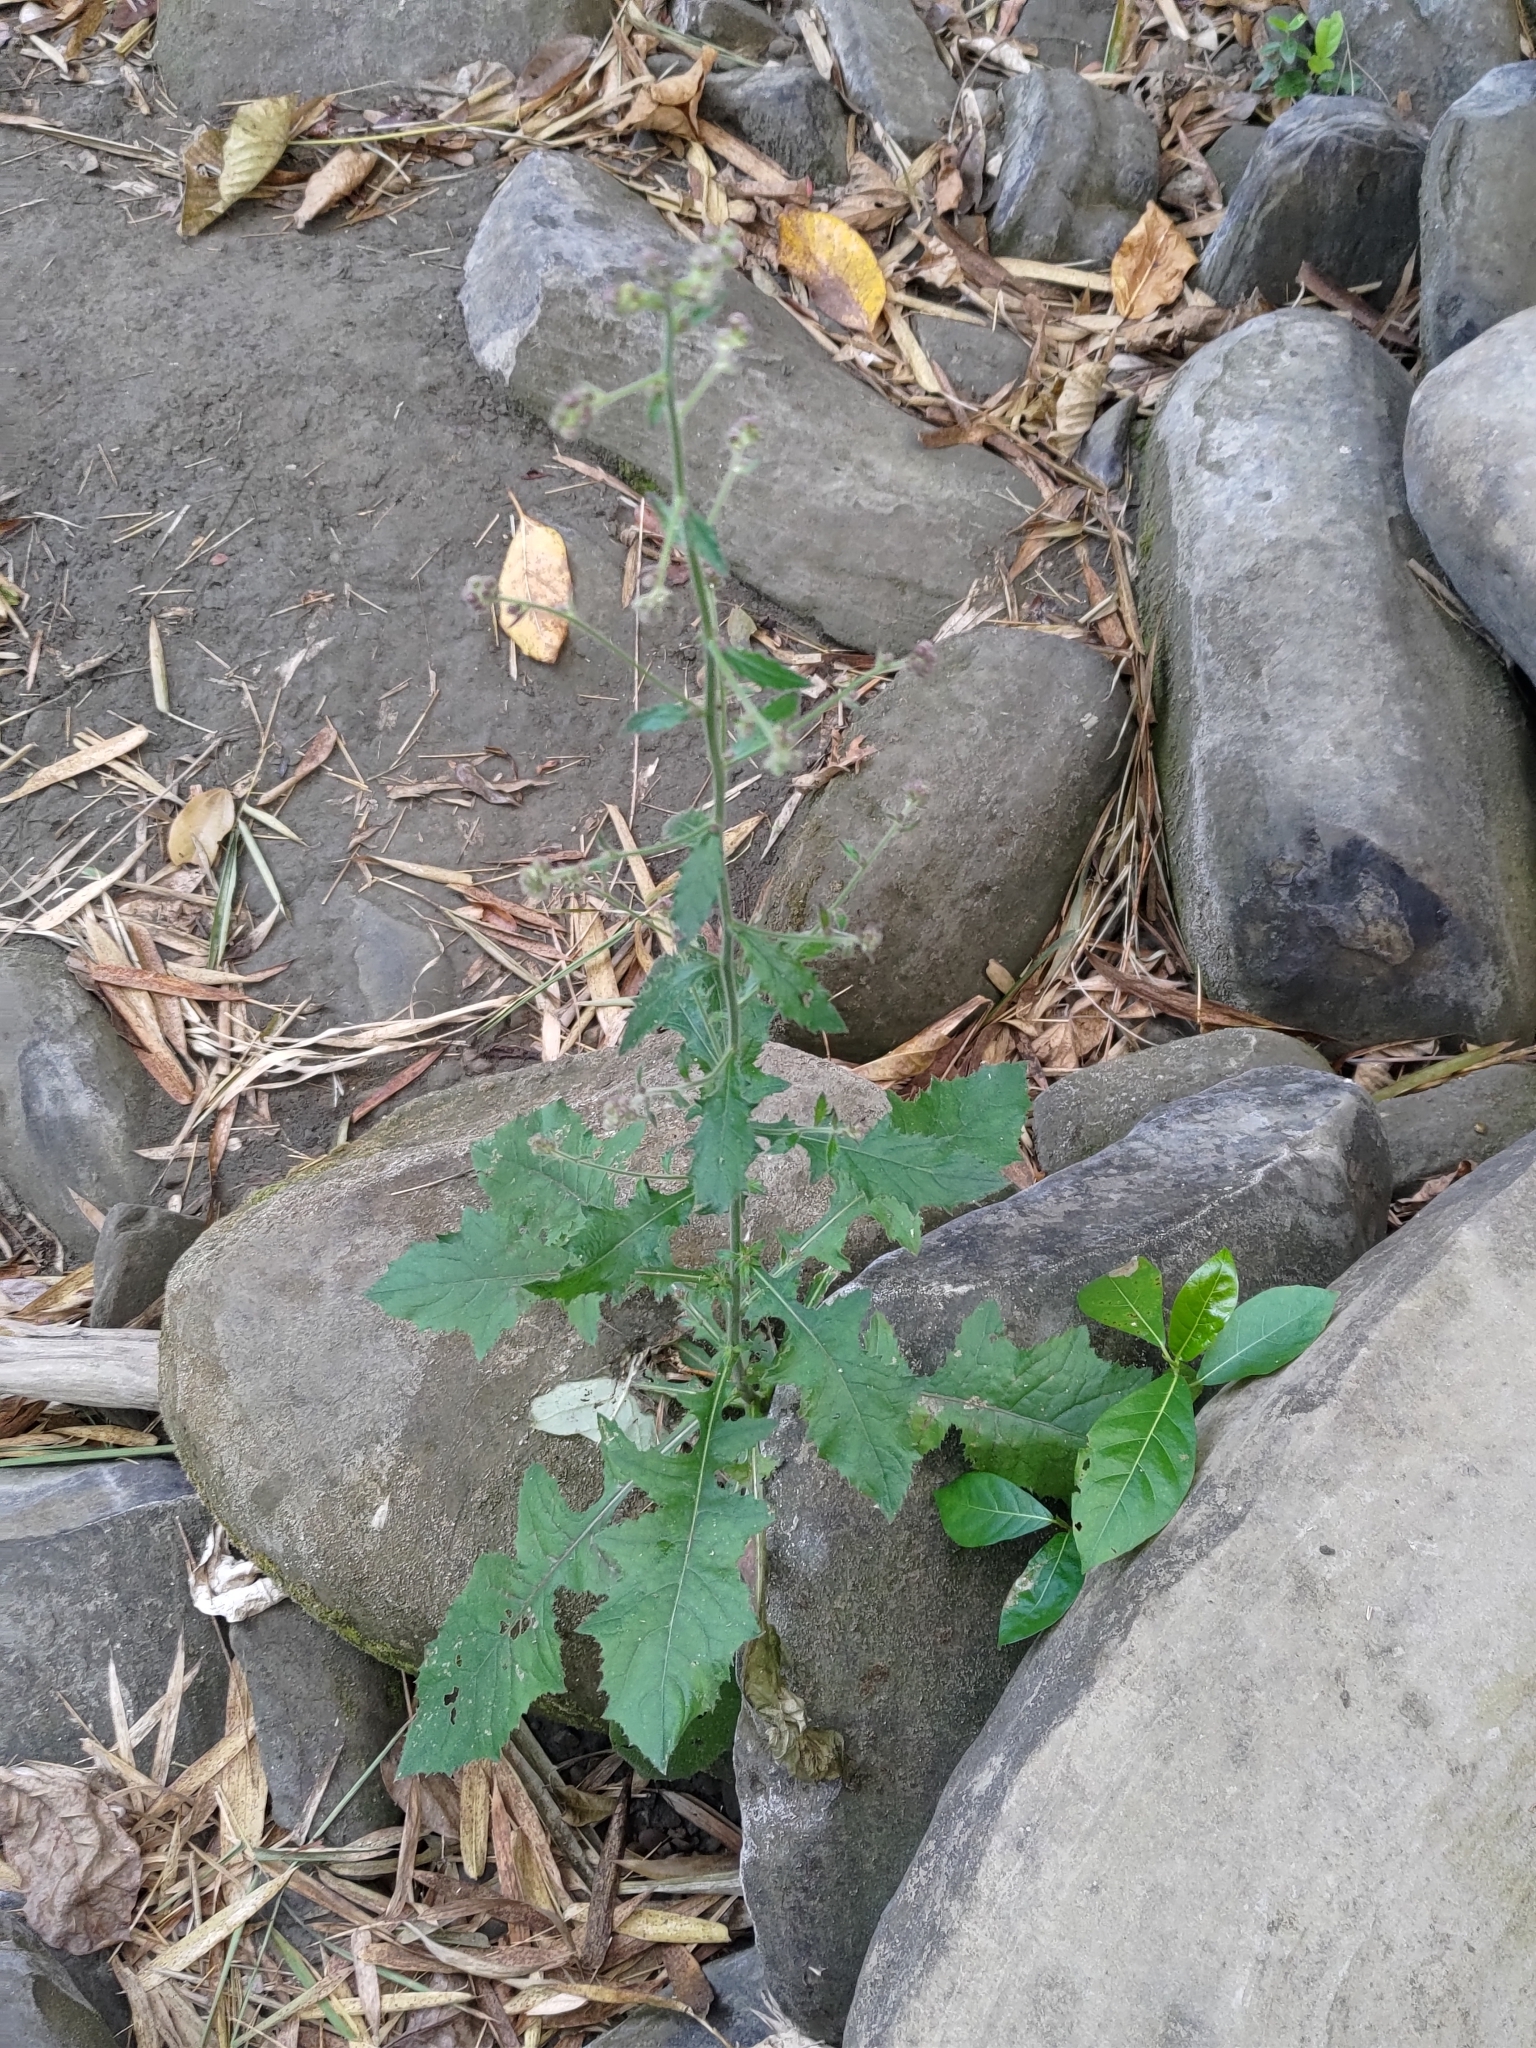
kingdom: Plantae
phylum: Tracheophyta
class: Magnoliopsida
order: Asterales
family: Asteraceae
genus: Blumea
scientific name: Blumea sinuata
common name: Cutleaf false oxtongue
